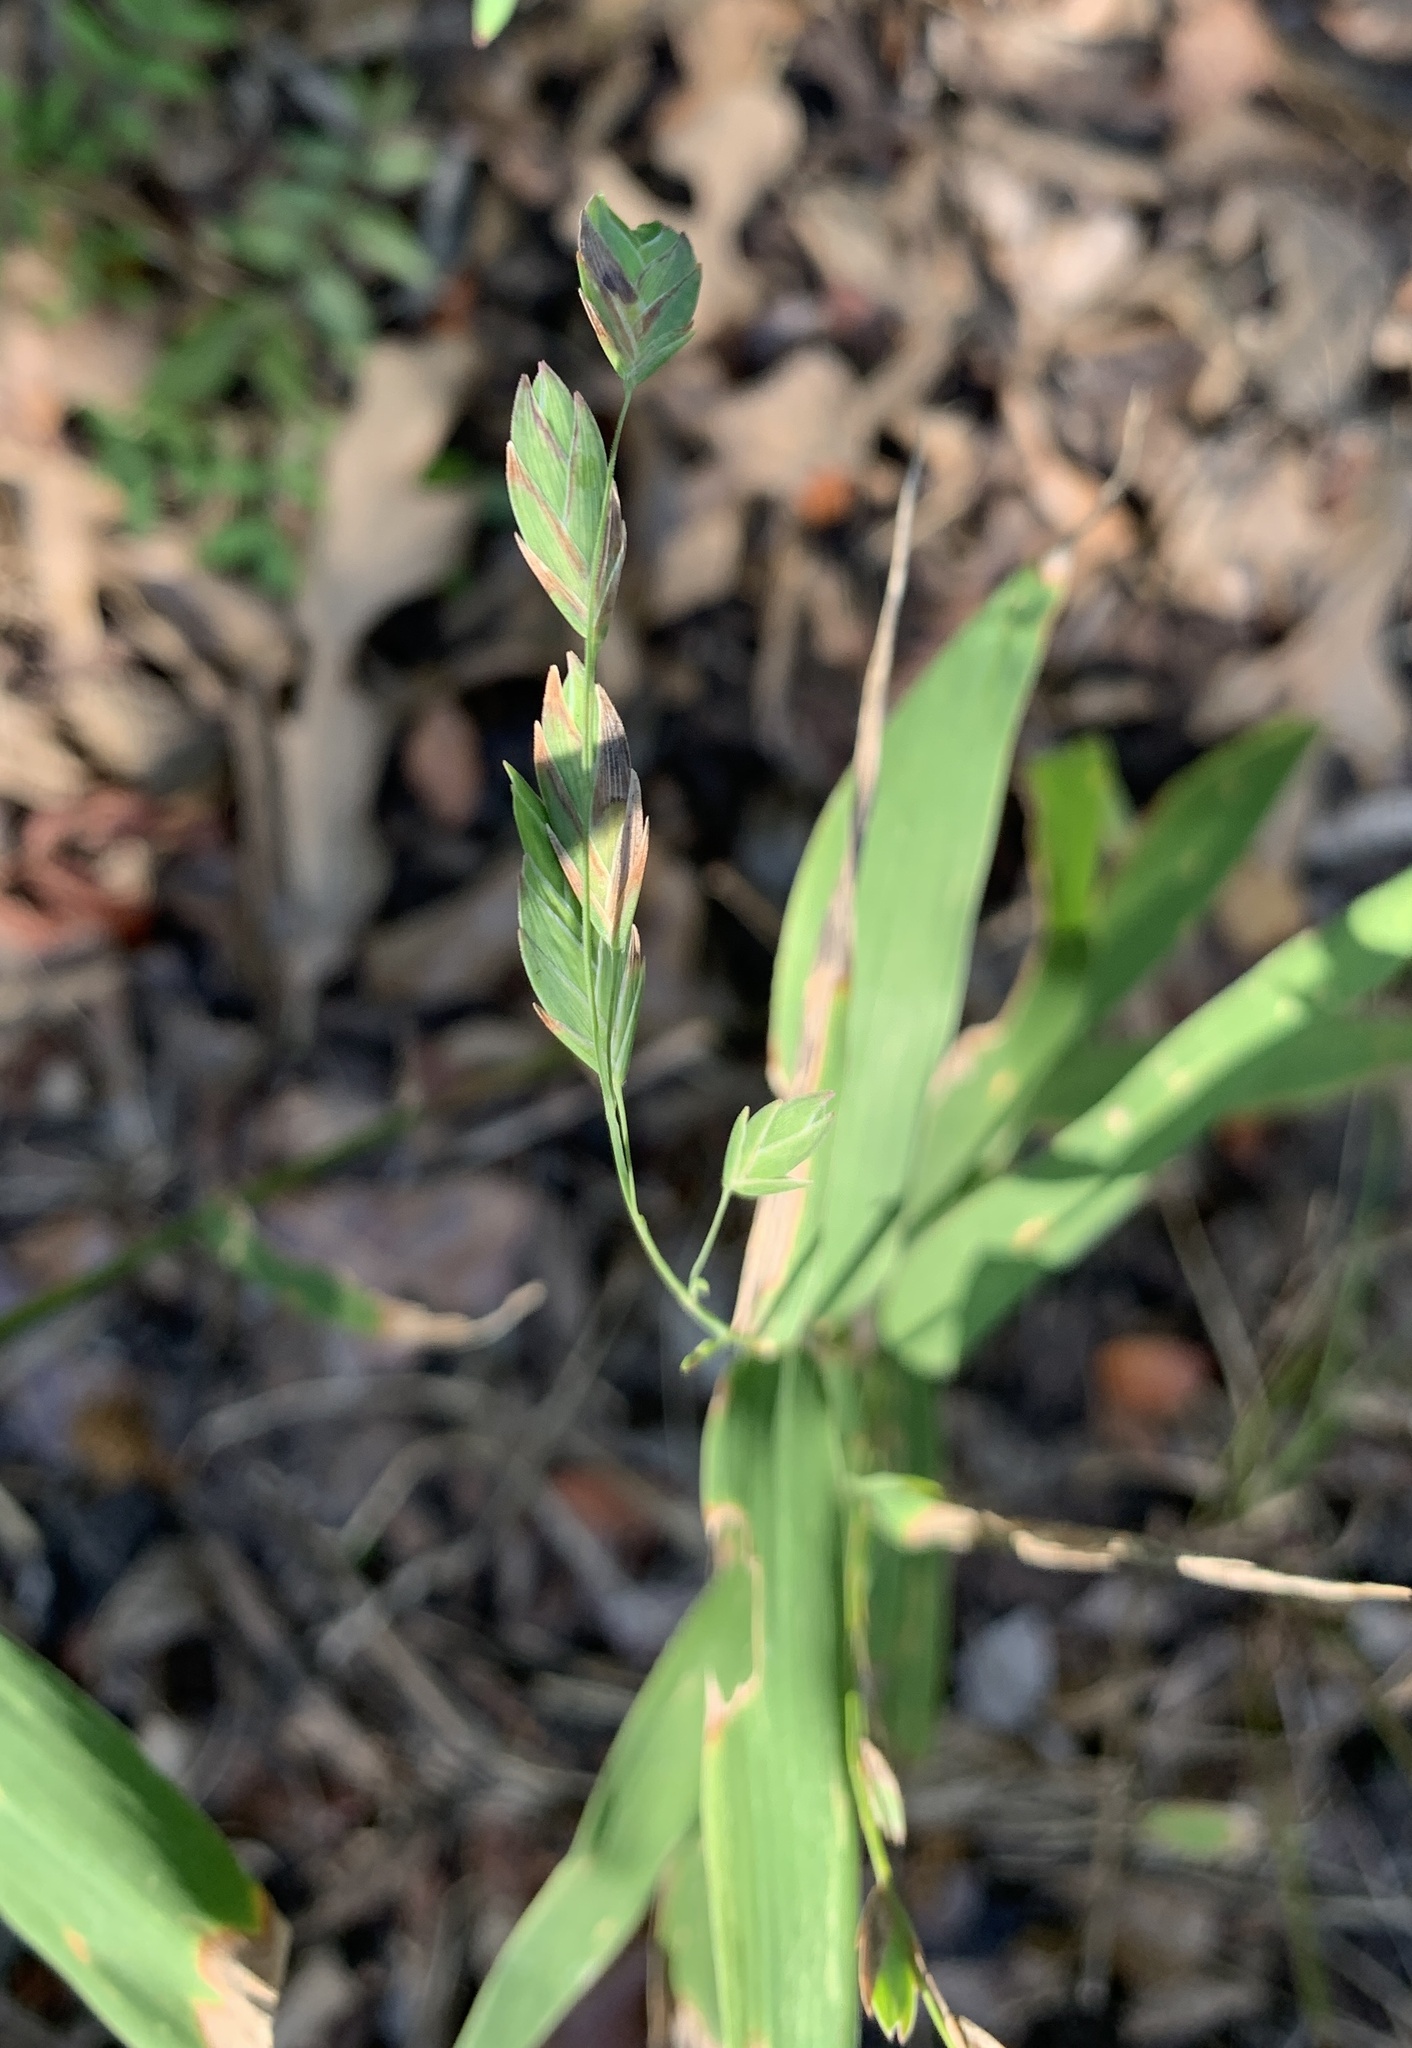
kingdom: Plantae
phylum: Tracheophyta
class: Liliopsida
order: Poales
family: Poaceae
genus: Chasmanthium
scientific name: Chasmanthium latifolium
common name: Broad-leaved chasmanthium
